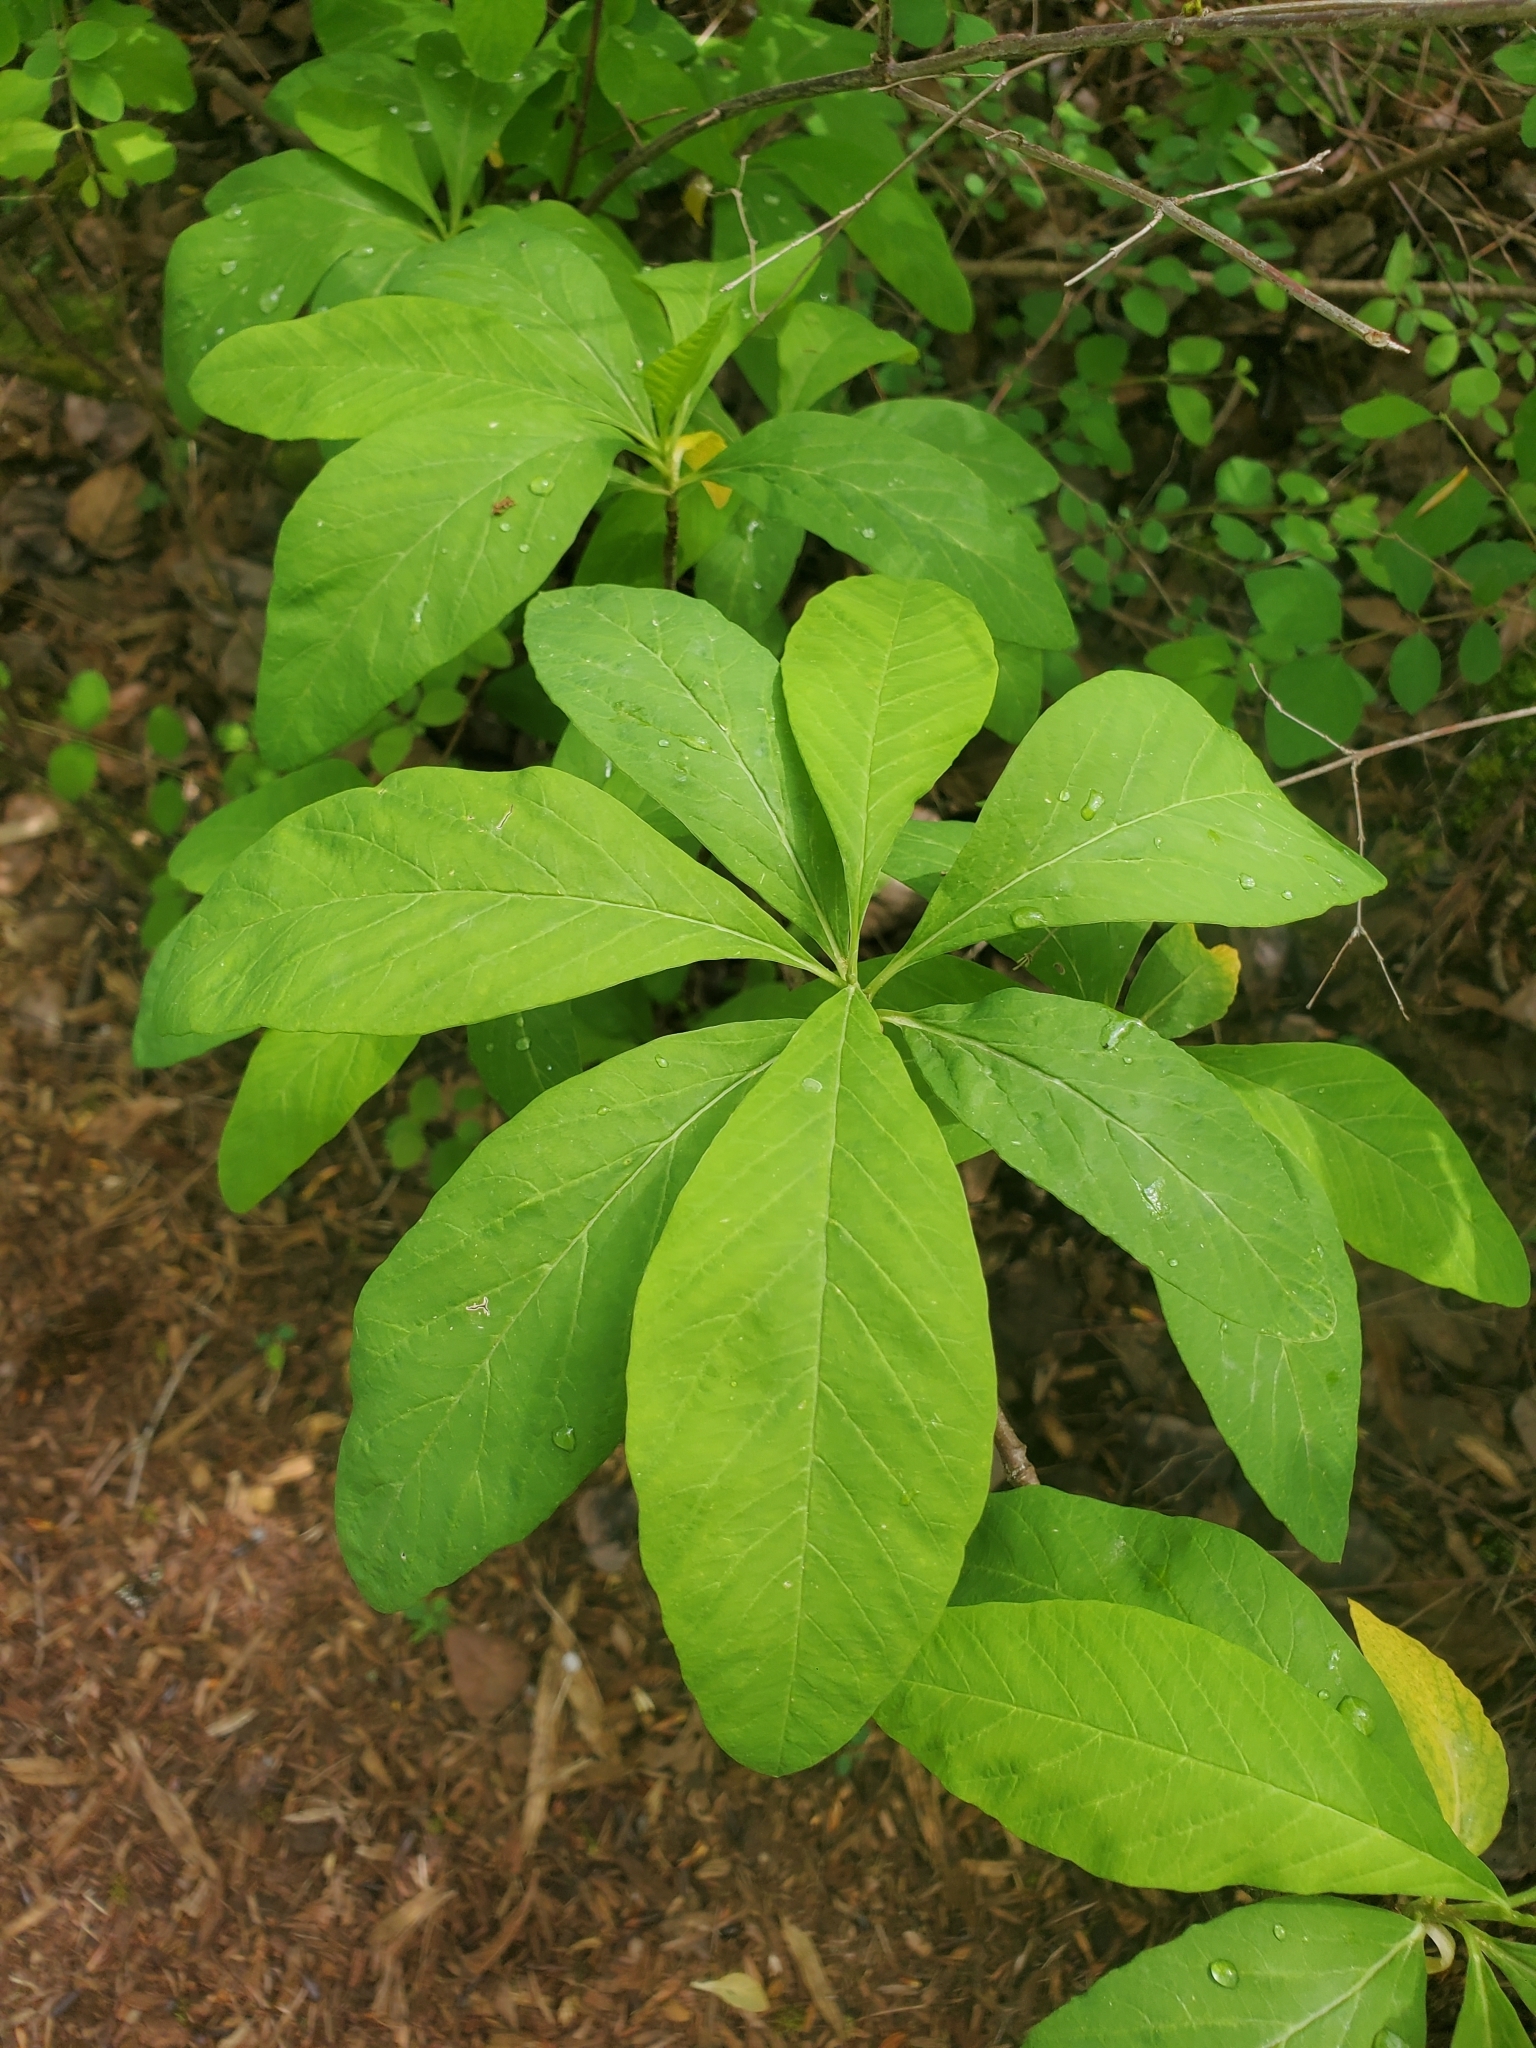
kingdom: Plantae
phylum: Tracheophyta
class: Magnoliopsida
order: Rosales
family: Rosaceae
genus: Oemleria
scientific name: Oemleria cerasiformis
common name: Osoberry
